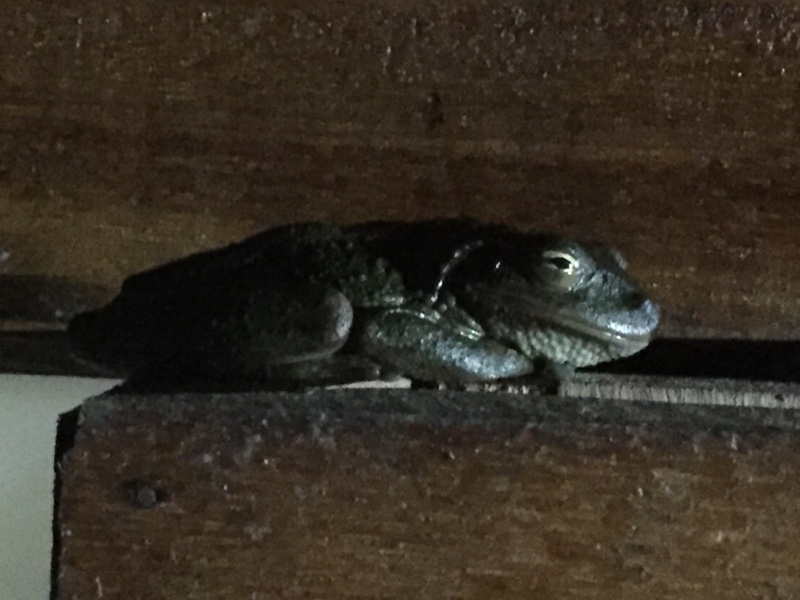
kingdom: Animalia
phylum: Chordata
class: Amphibia
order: Anura
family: Hylidae
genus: Osteopilus
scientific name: Osteopilus septentrionalis
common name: Cuban treefrog
